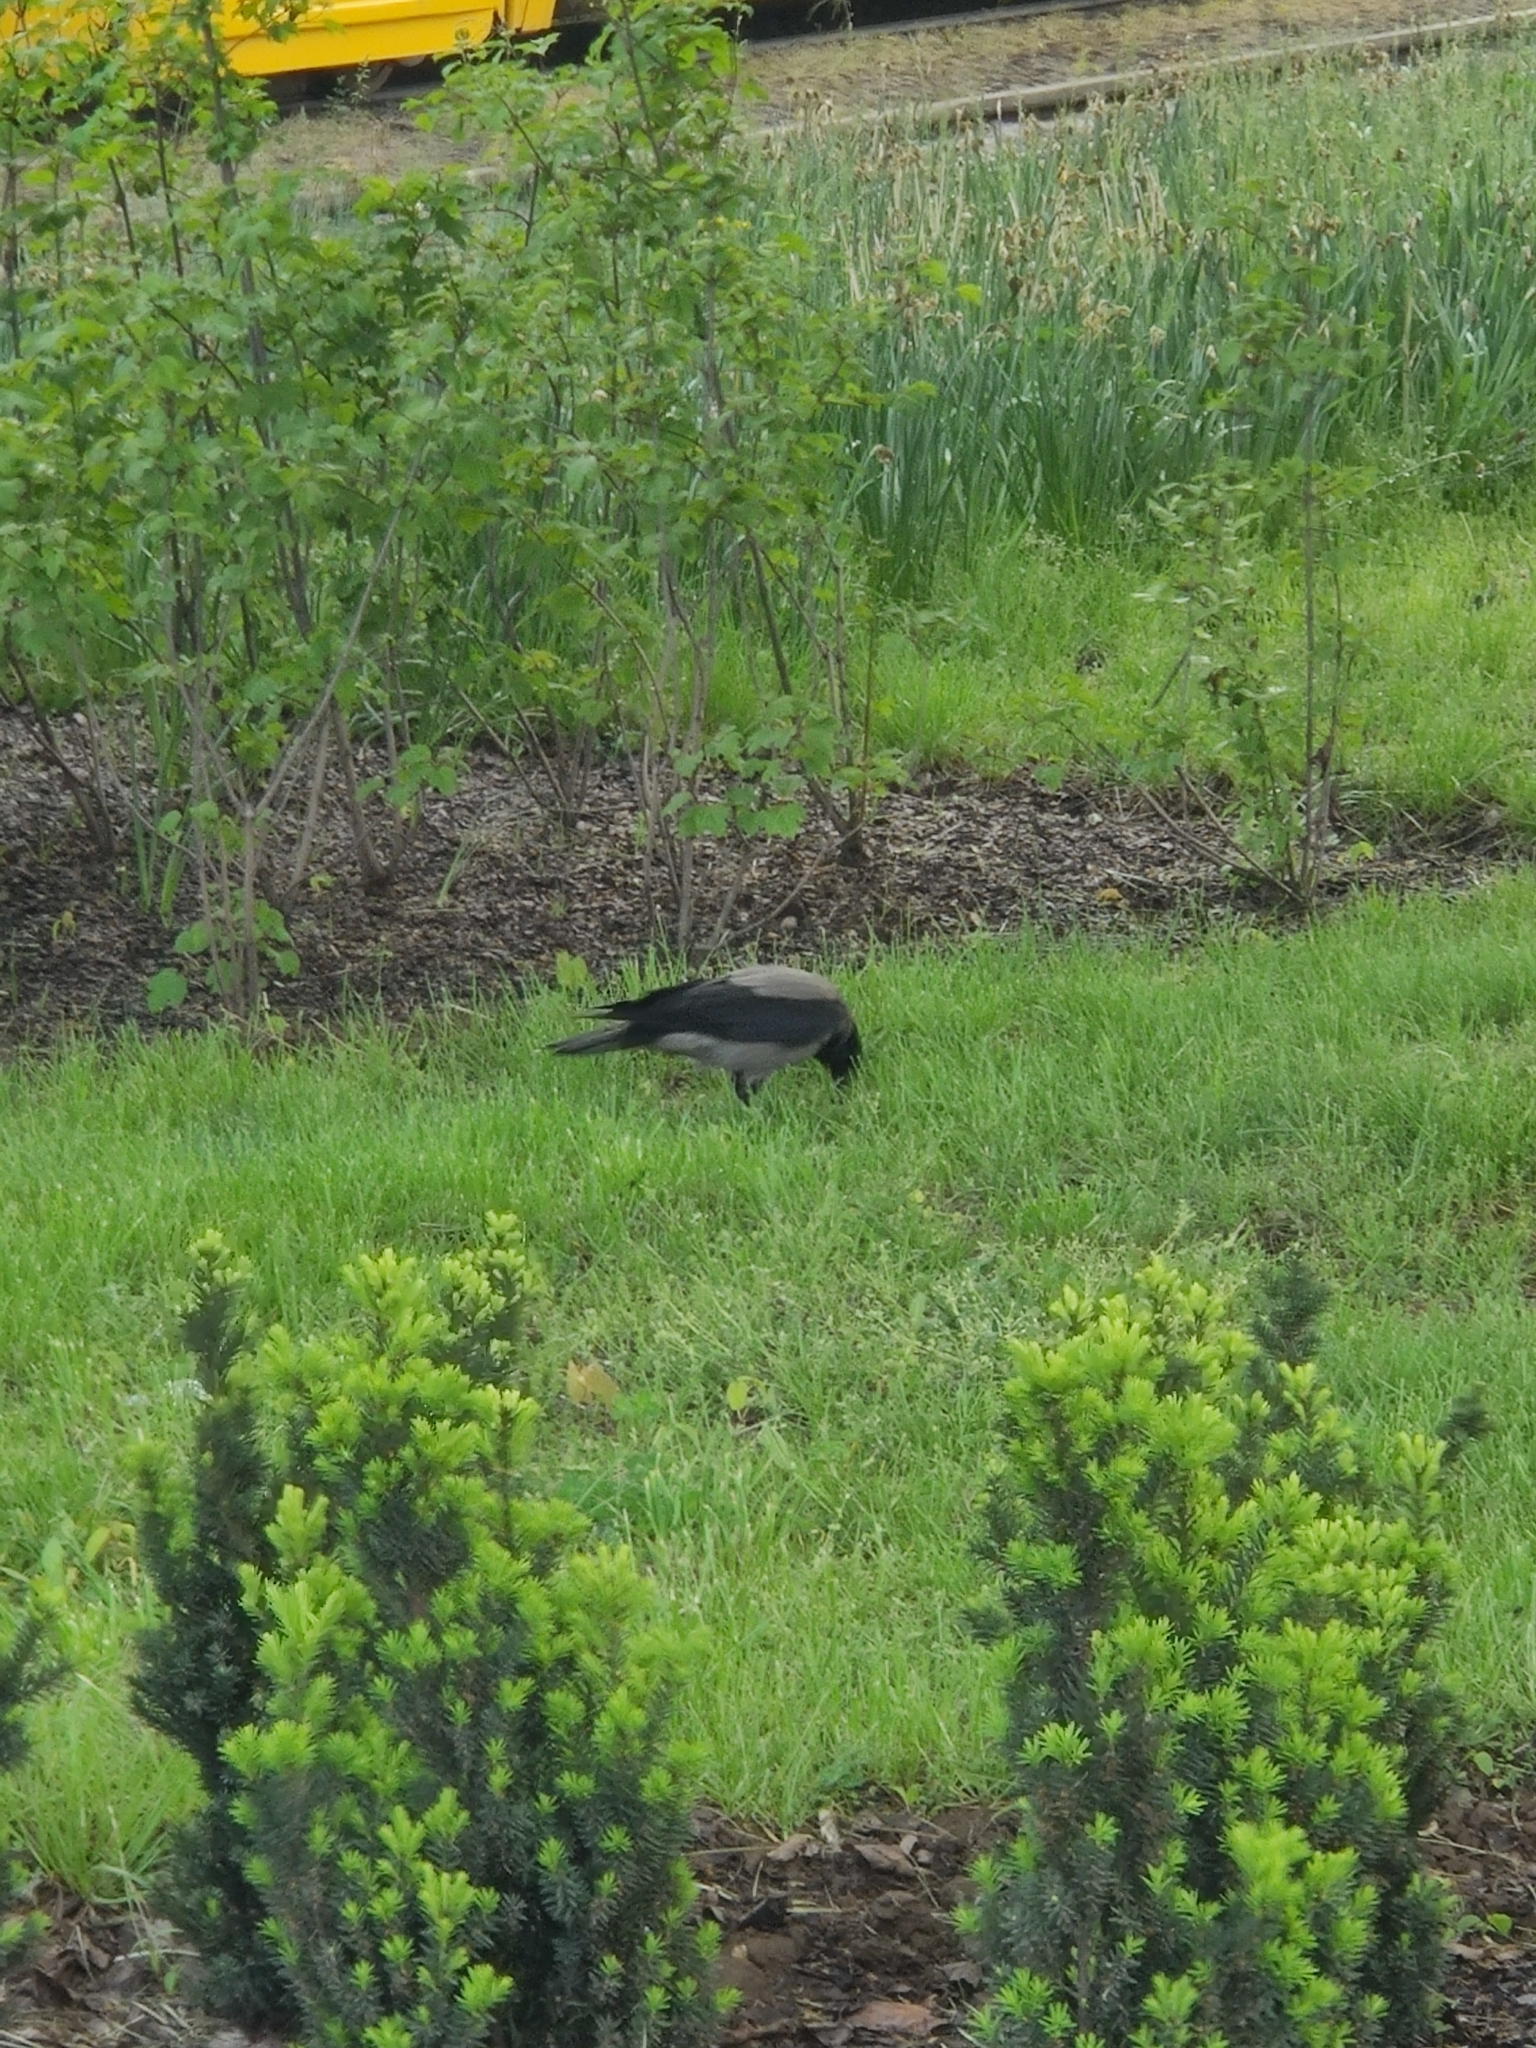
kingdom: Animalia
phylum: Chordata
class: Aves
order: Passeriformes
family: Corvidae
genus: Corvus
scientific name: Corvus cornix
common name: Hooded crow
